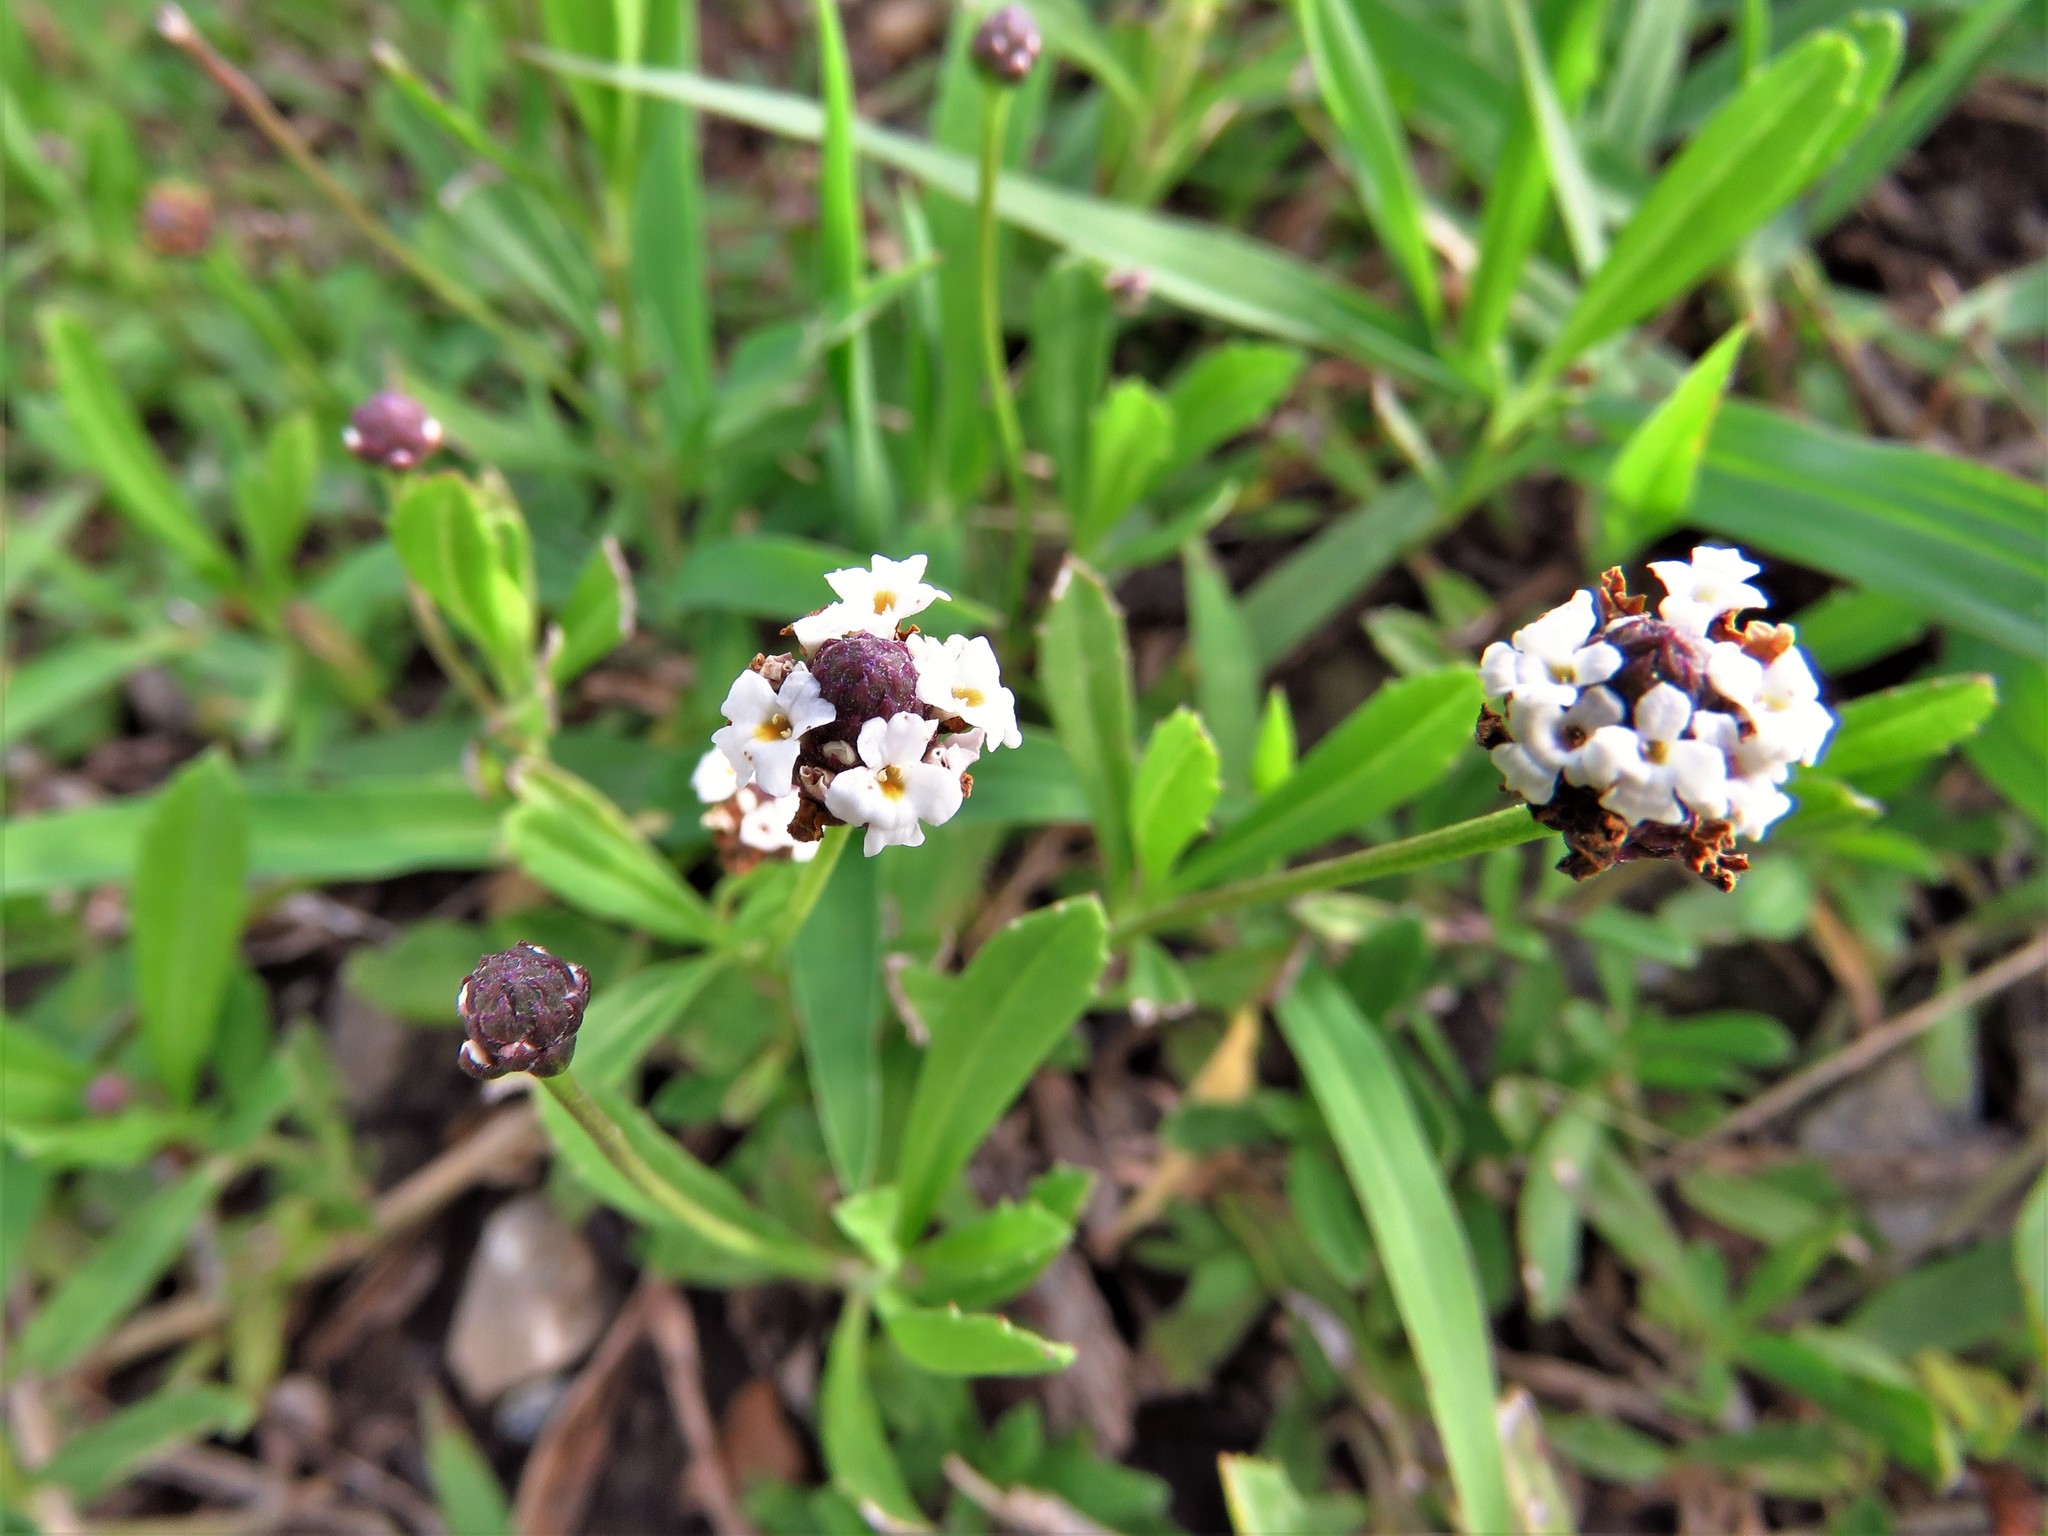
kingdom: Plantae
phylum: Tracheophyta
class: Magnoliopsida
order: Lamiales
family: Verbenaceae
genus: Phyla
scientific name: Phyla nodiflora
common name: Frogfruit
